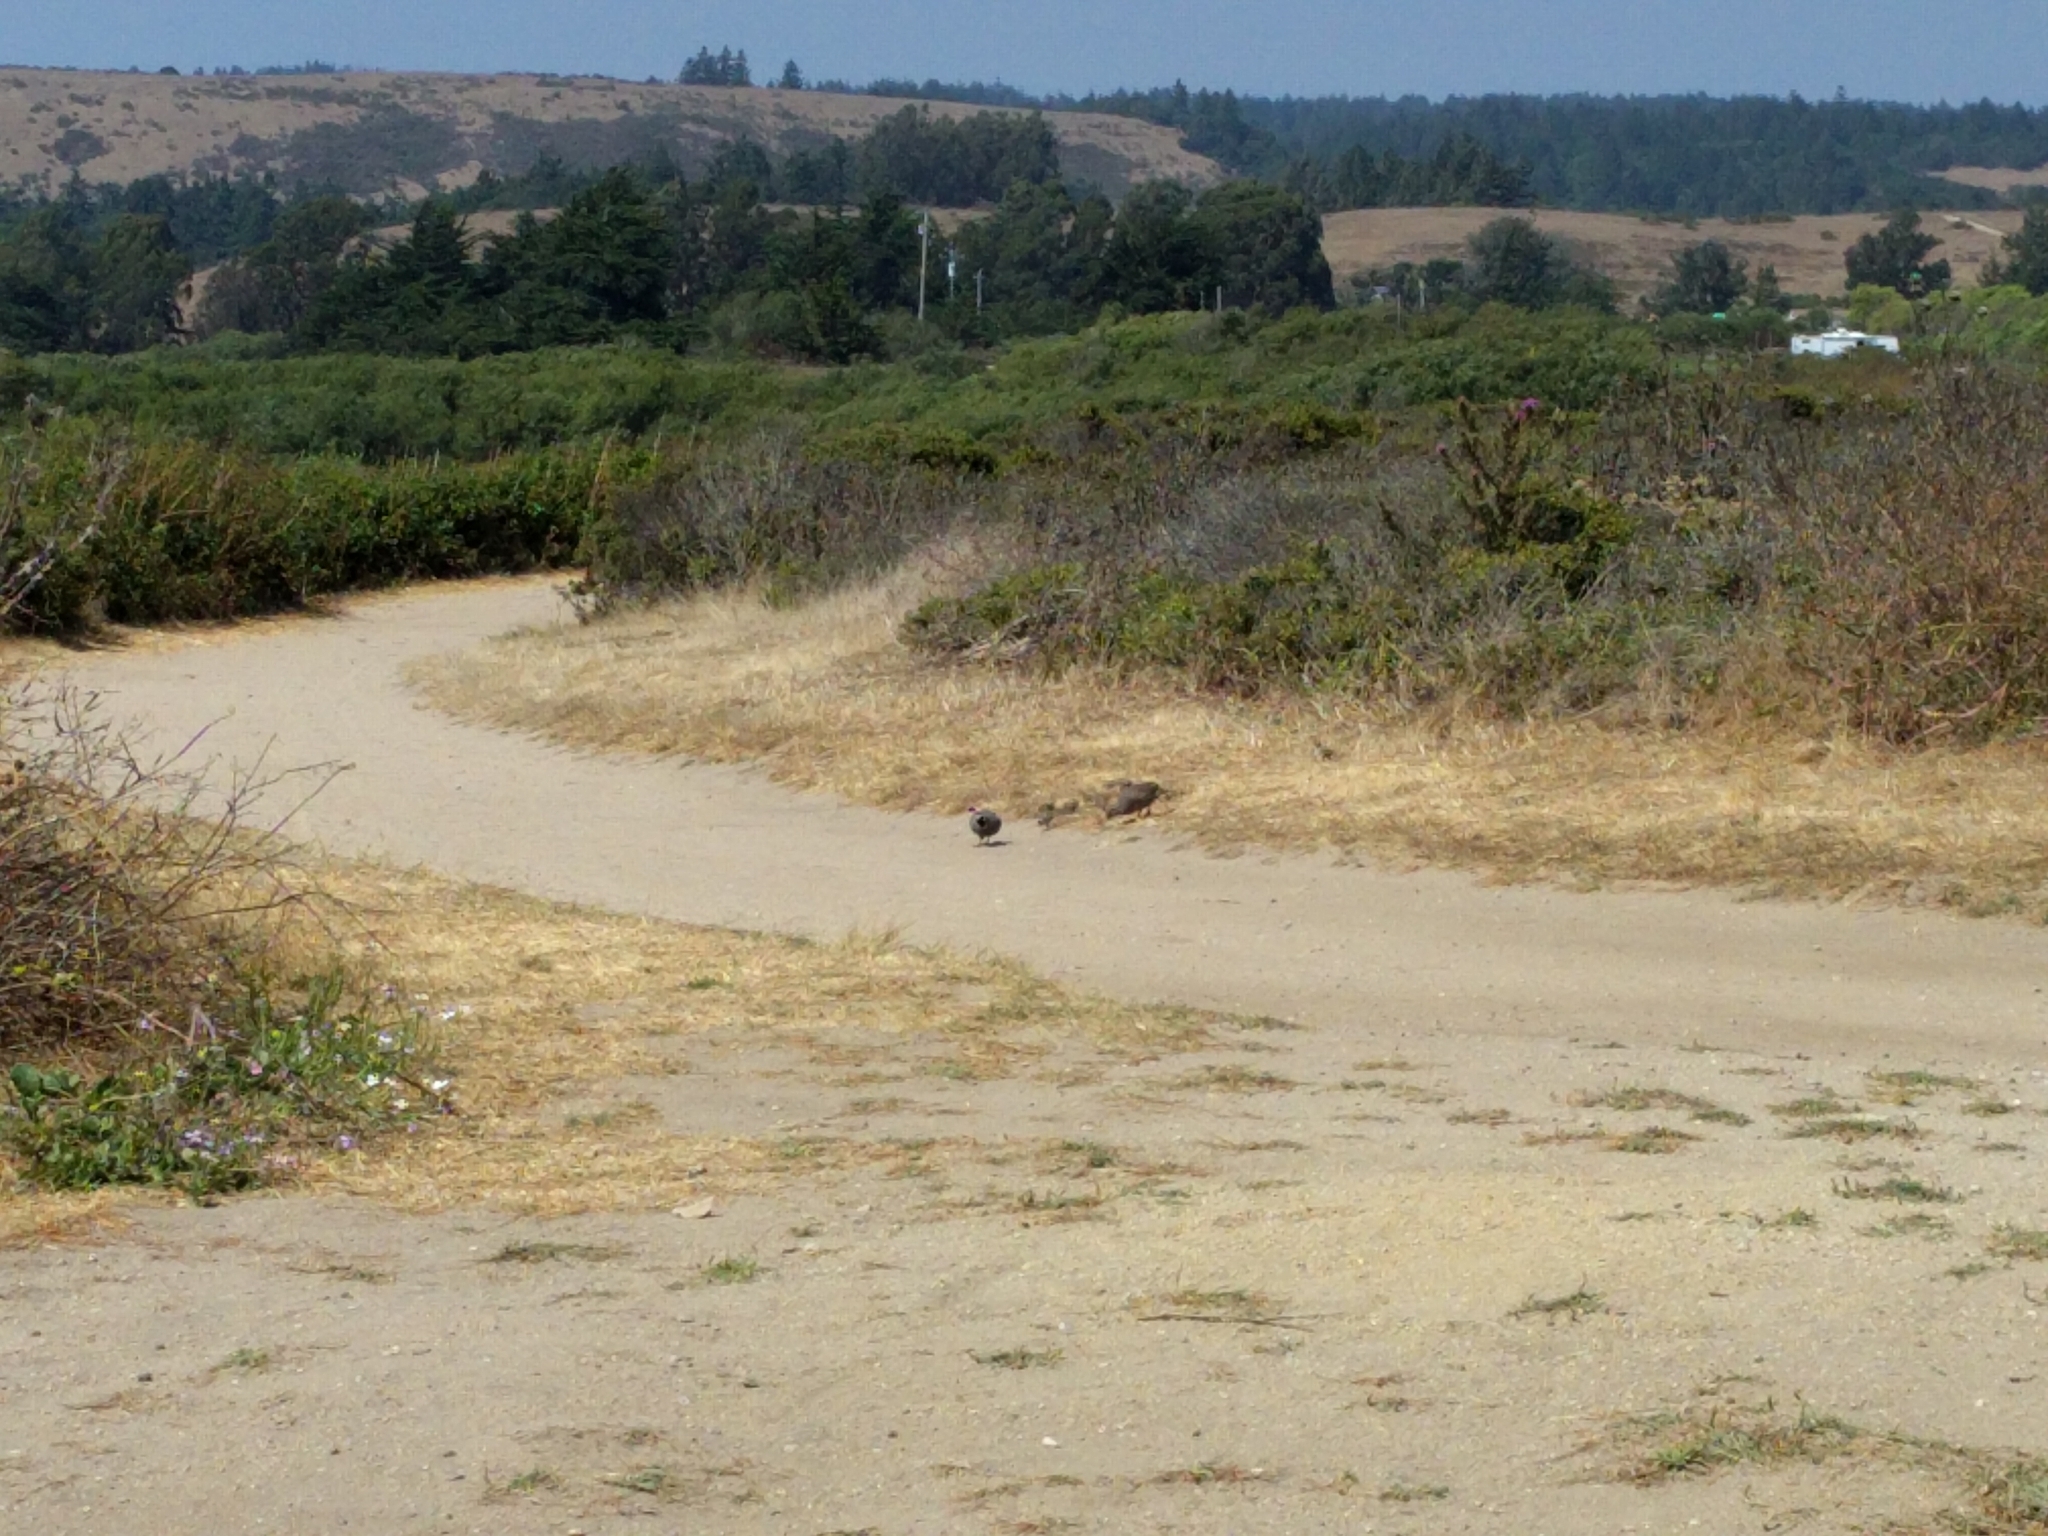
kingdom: Animalia
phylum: Chordata
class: Aves
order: Galliformes
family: Odontophoridae
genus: Callipepla
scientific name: Callipepla californica
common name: California quail
